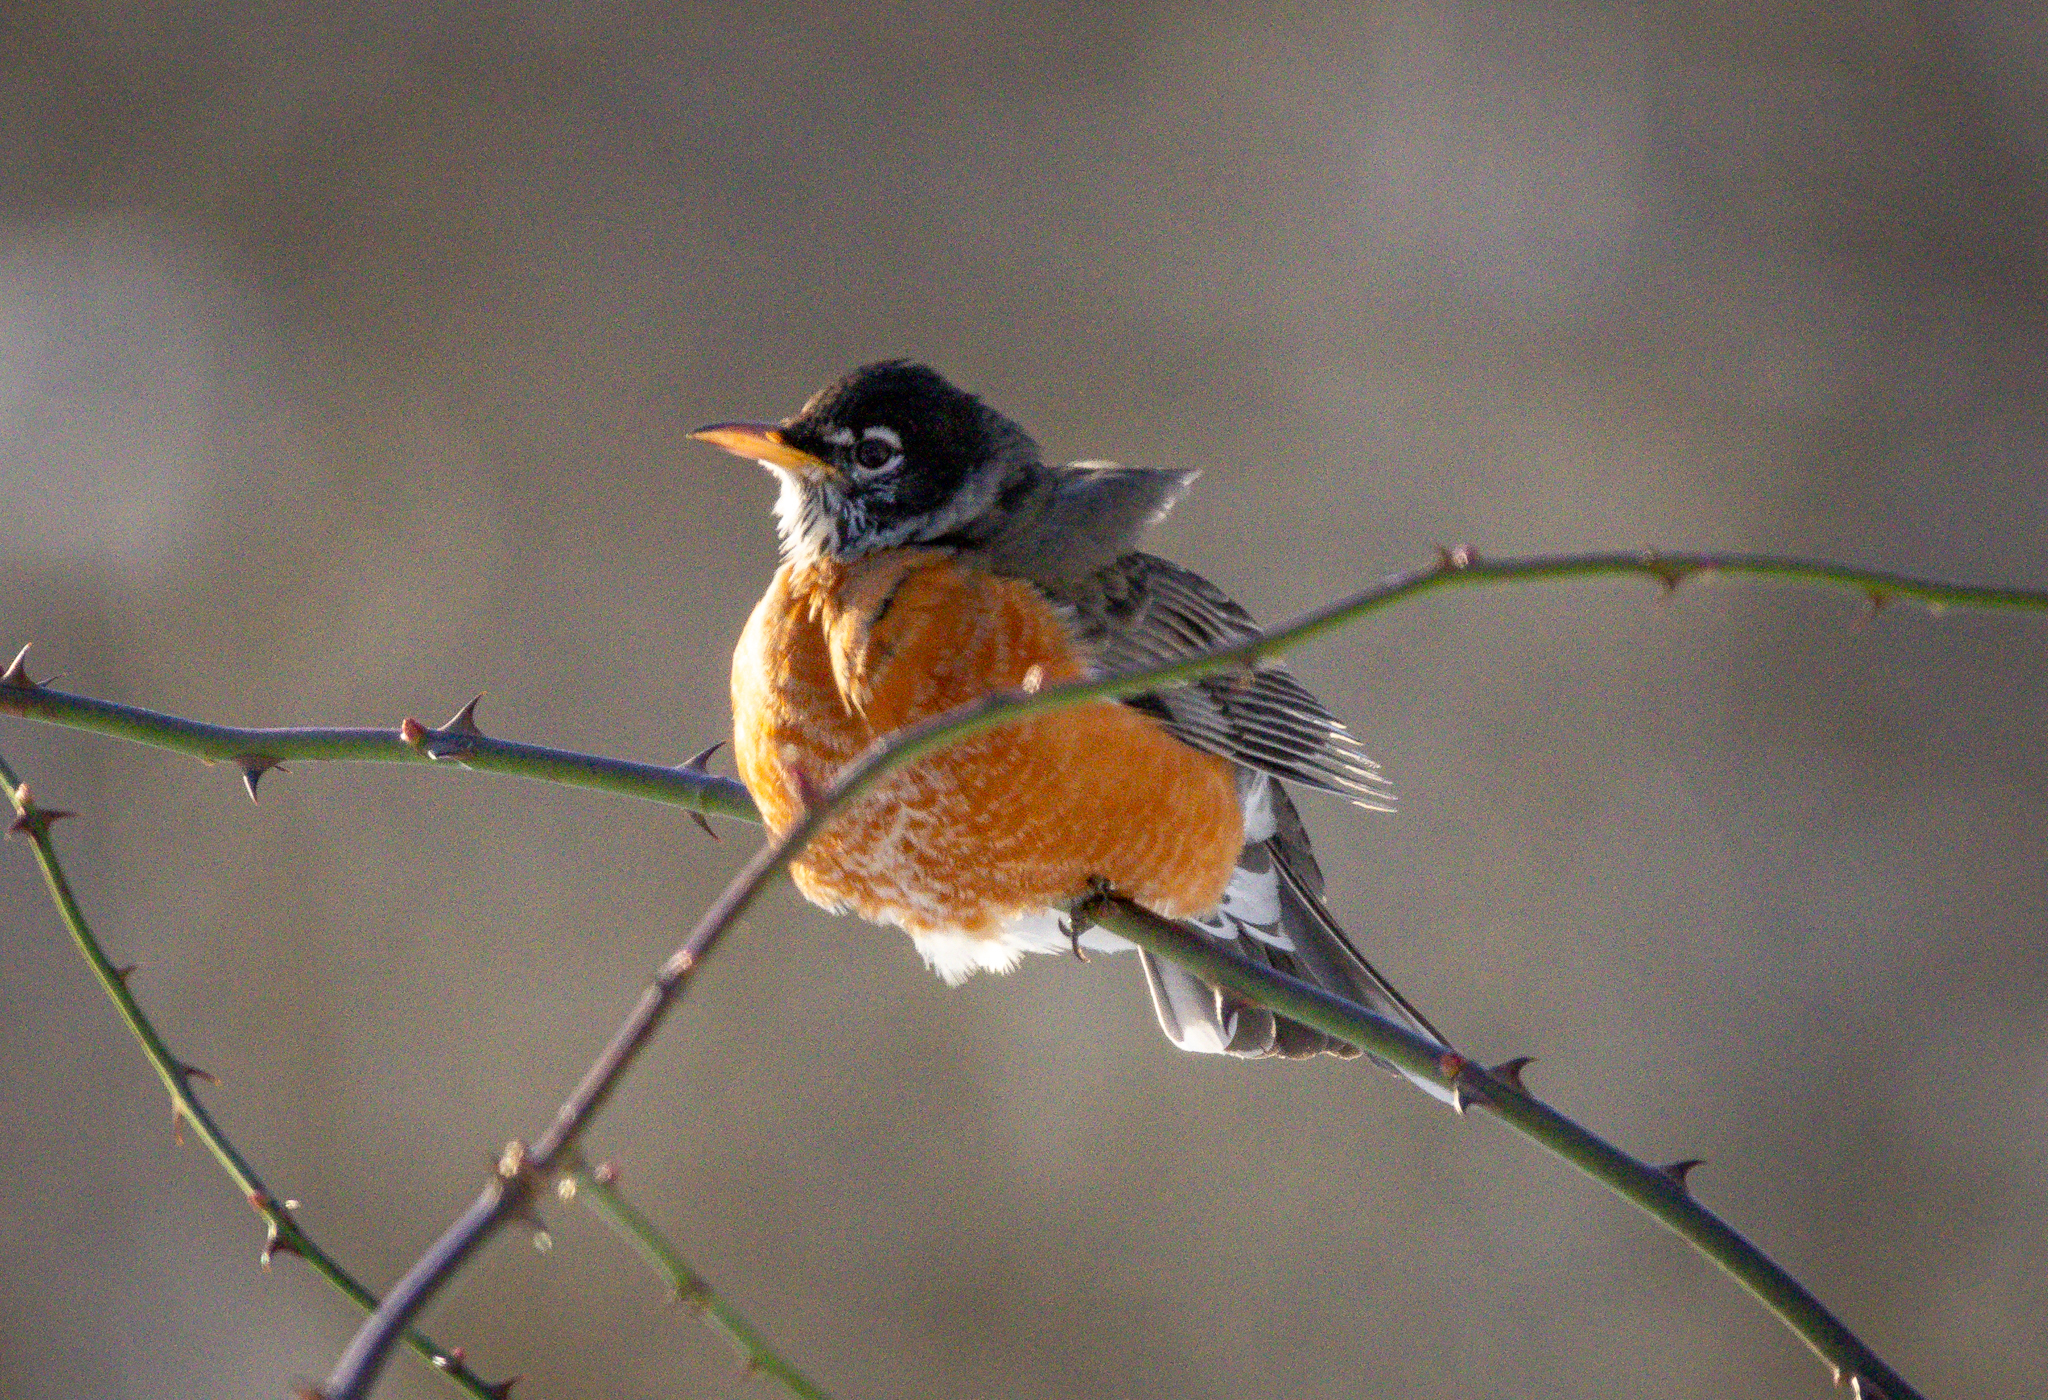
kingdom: Animalia
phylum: Chordata
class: Aves
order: Passeriformes
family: Turdidae
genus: Turdus
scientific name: Turdus migratorius
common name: American robin
